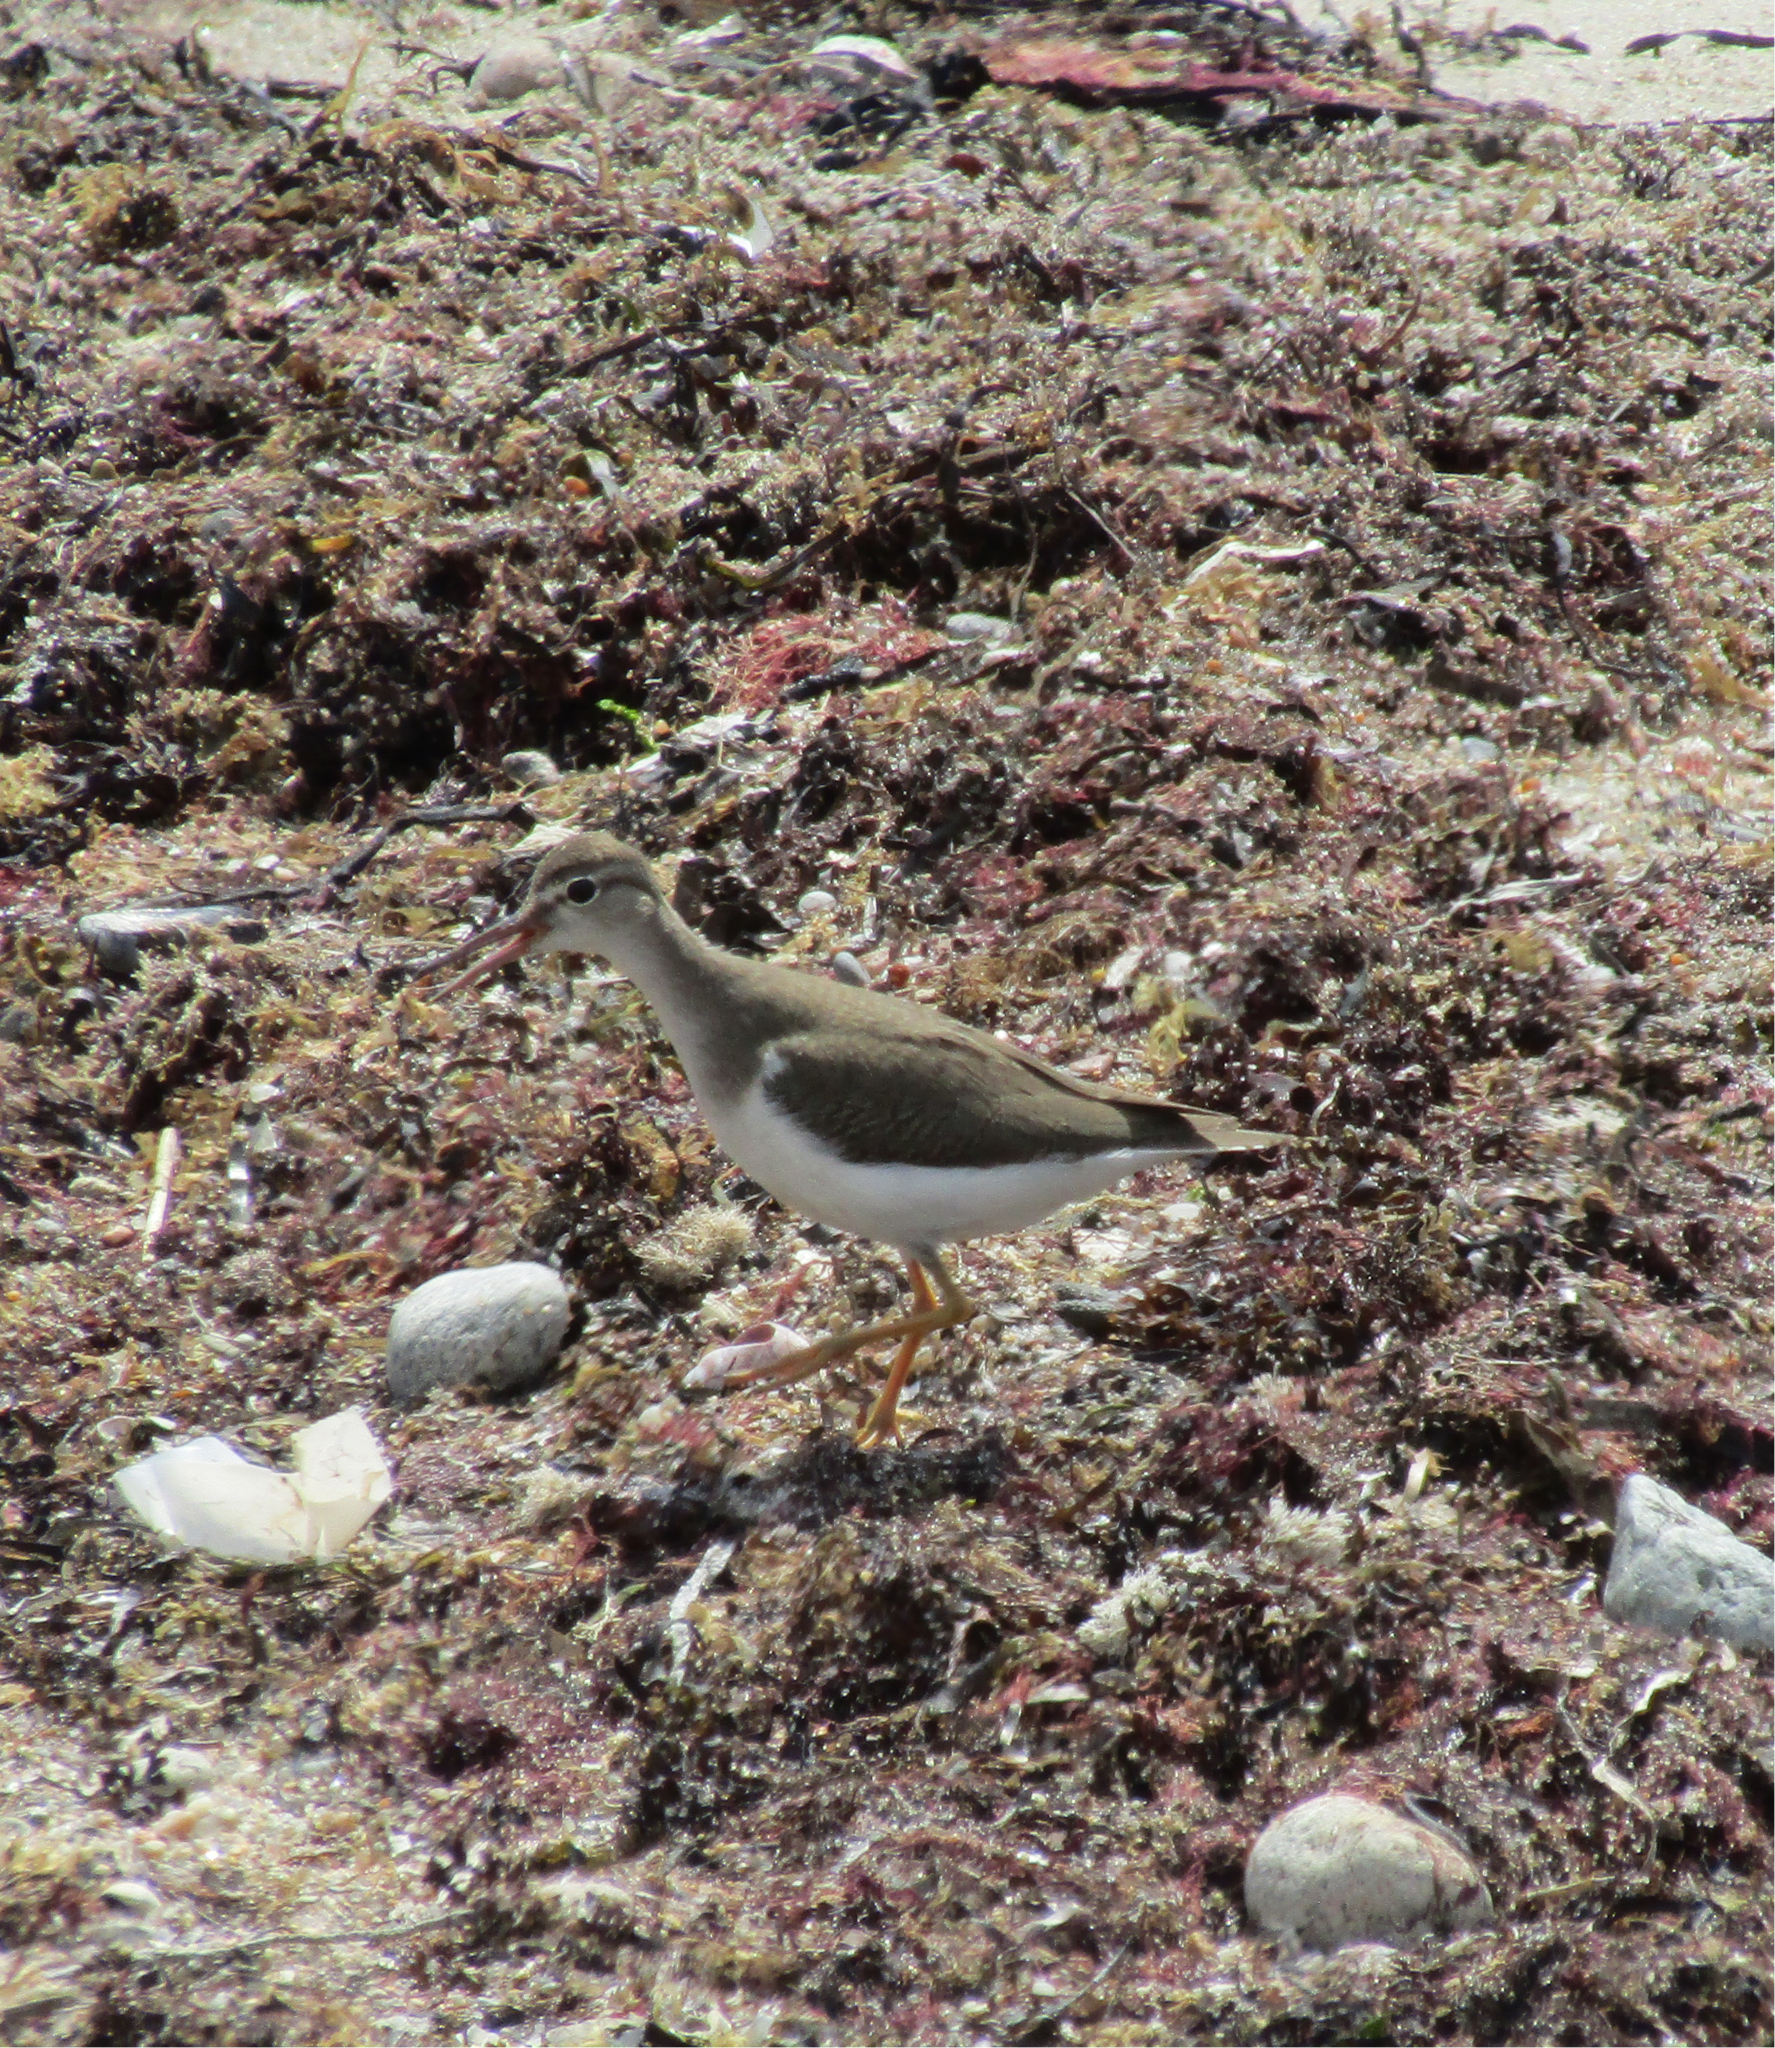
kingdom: Animalia
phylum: Chordata
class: Aves
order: Charadriiformes
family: Scolopacidae
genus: Actitis
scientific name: Actitis macularius
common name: Spotted sandpiper
